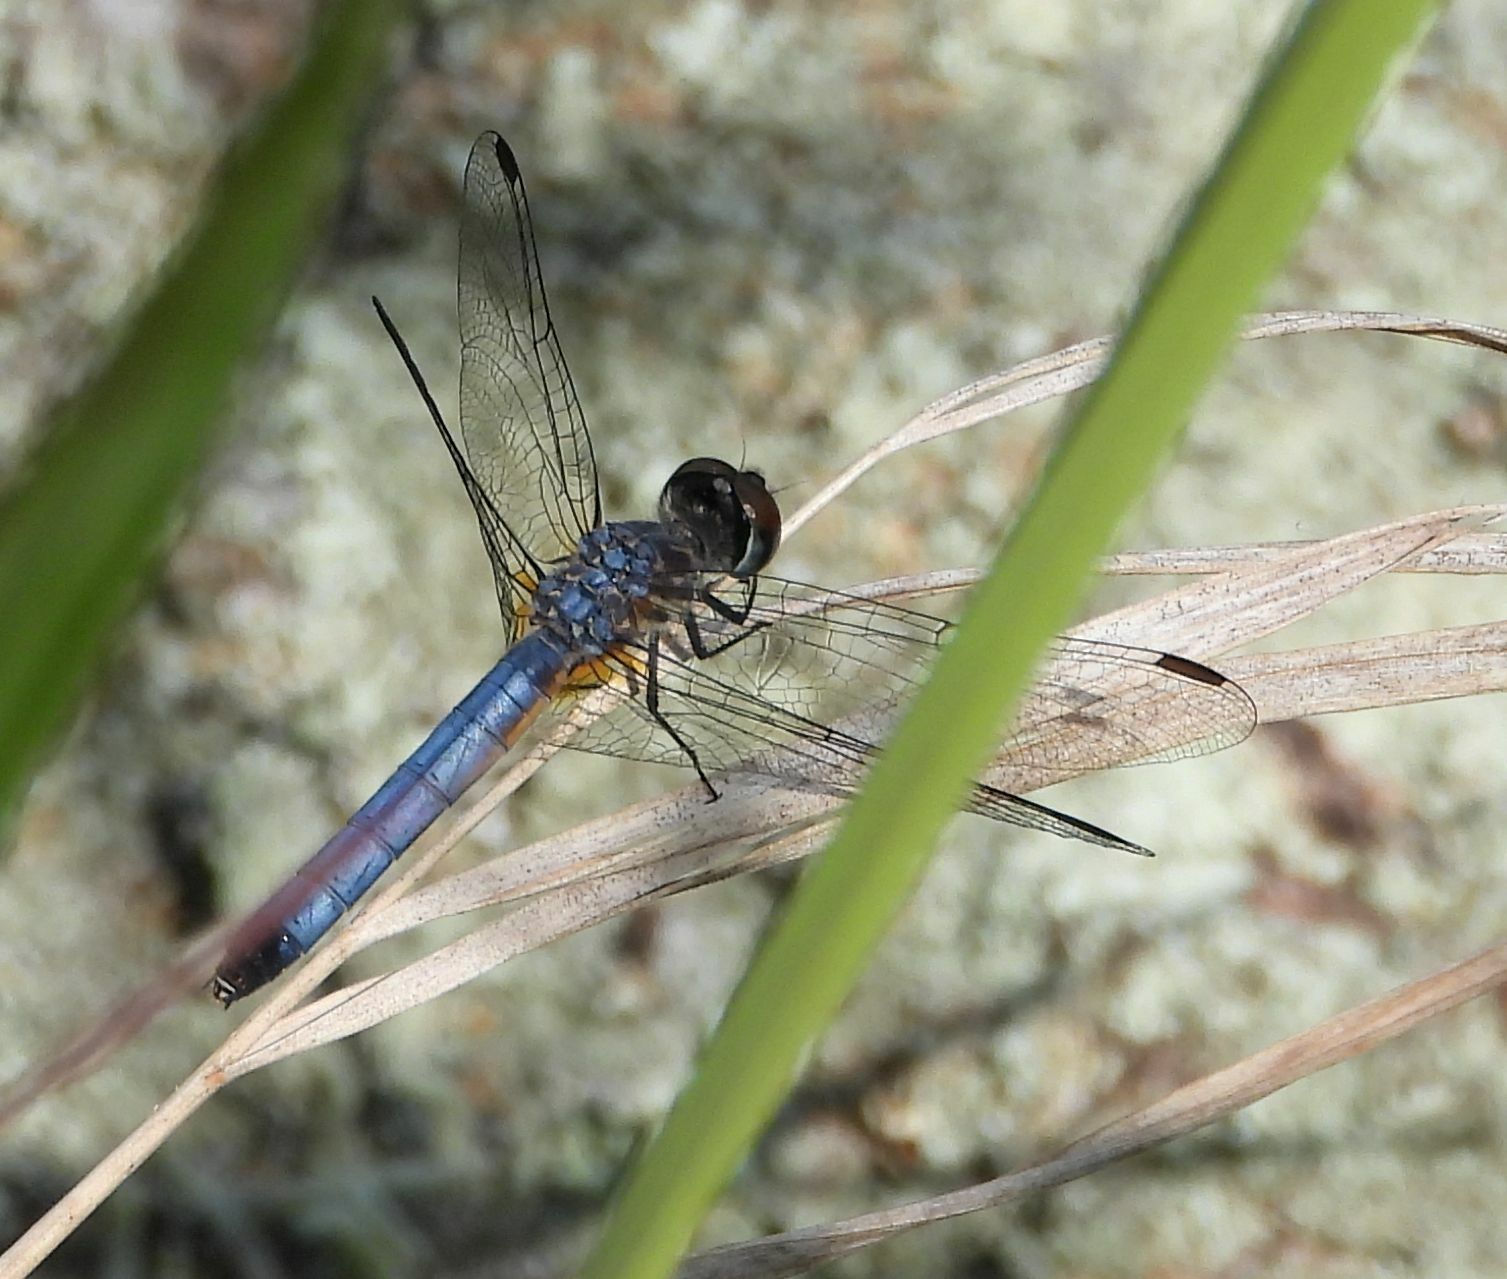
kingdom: Animalia
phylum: Arthropoda
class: Insecta
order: Odonata
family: Libellulidae
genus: Pachydiplax
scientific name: Pachydiplax longipennis
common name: Blue dasher
